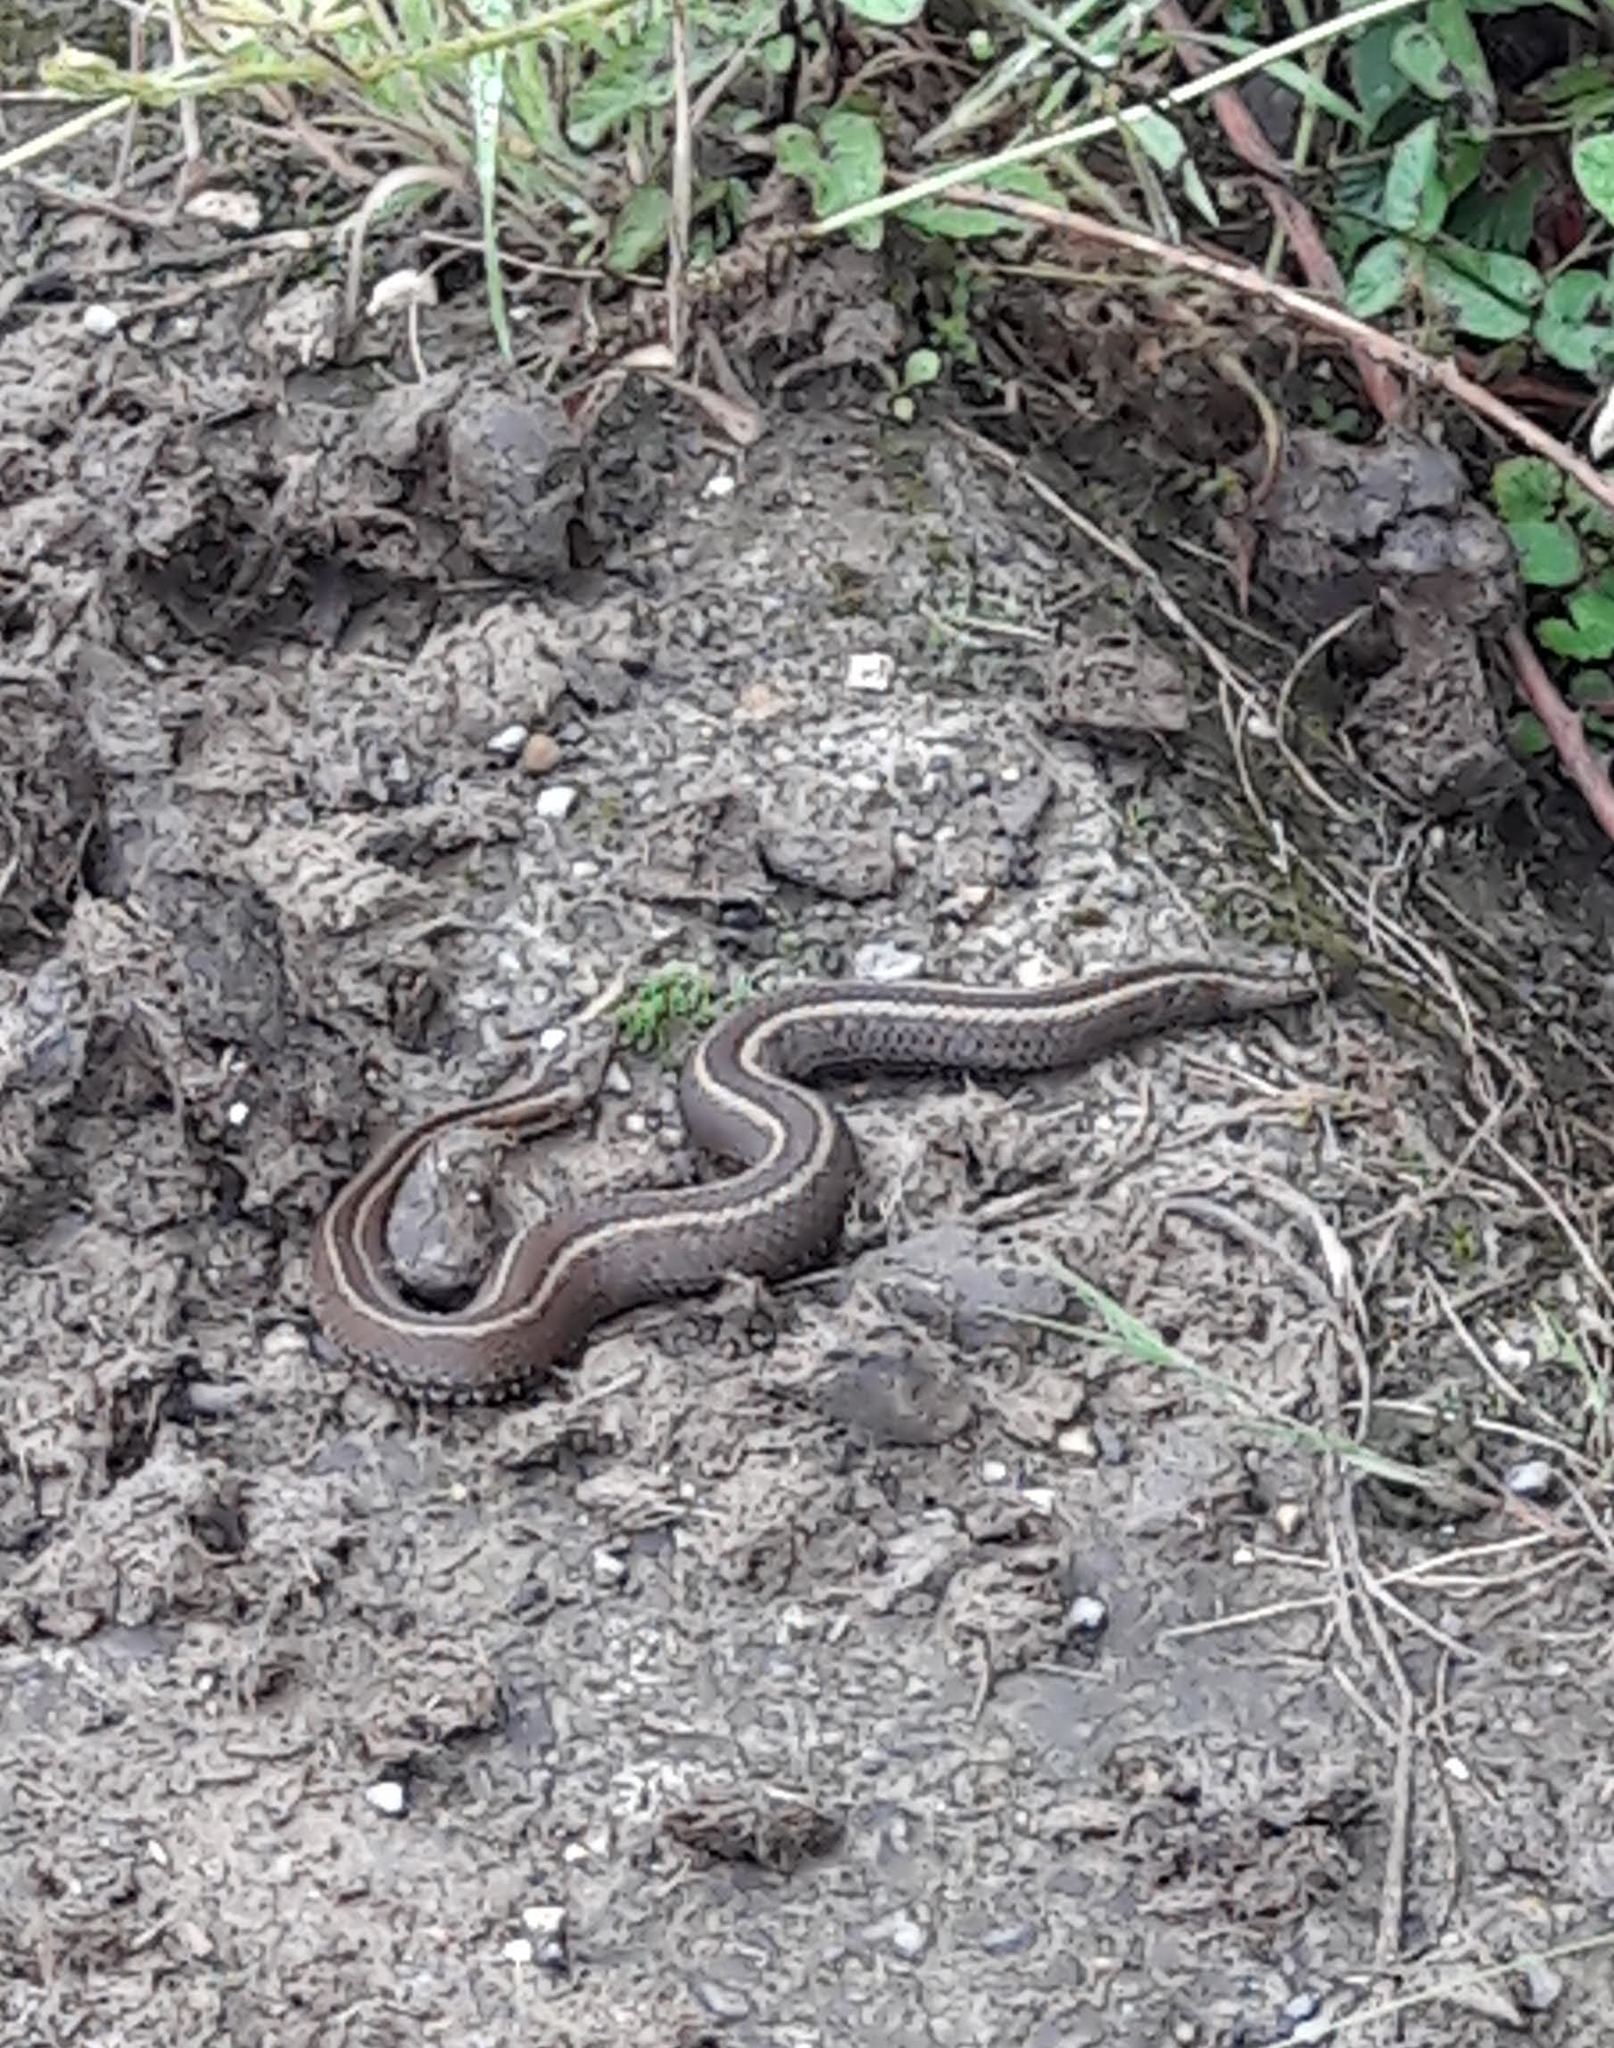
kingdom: Animalia
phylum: Chordata
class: Squamata
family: Viperidae
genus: Vipera
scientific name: Vipera seoanei
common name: Portugese viper
